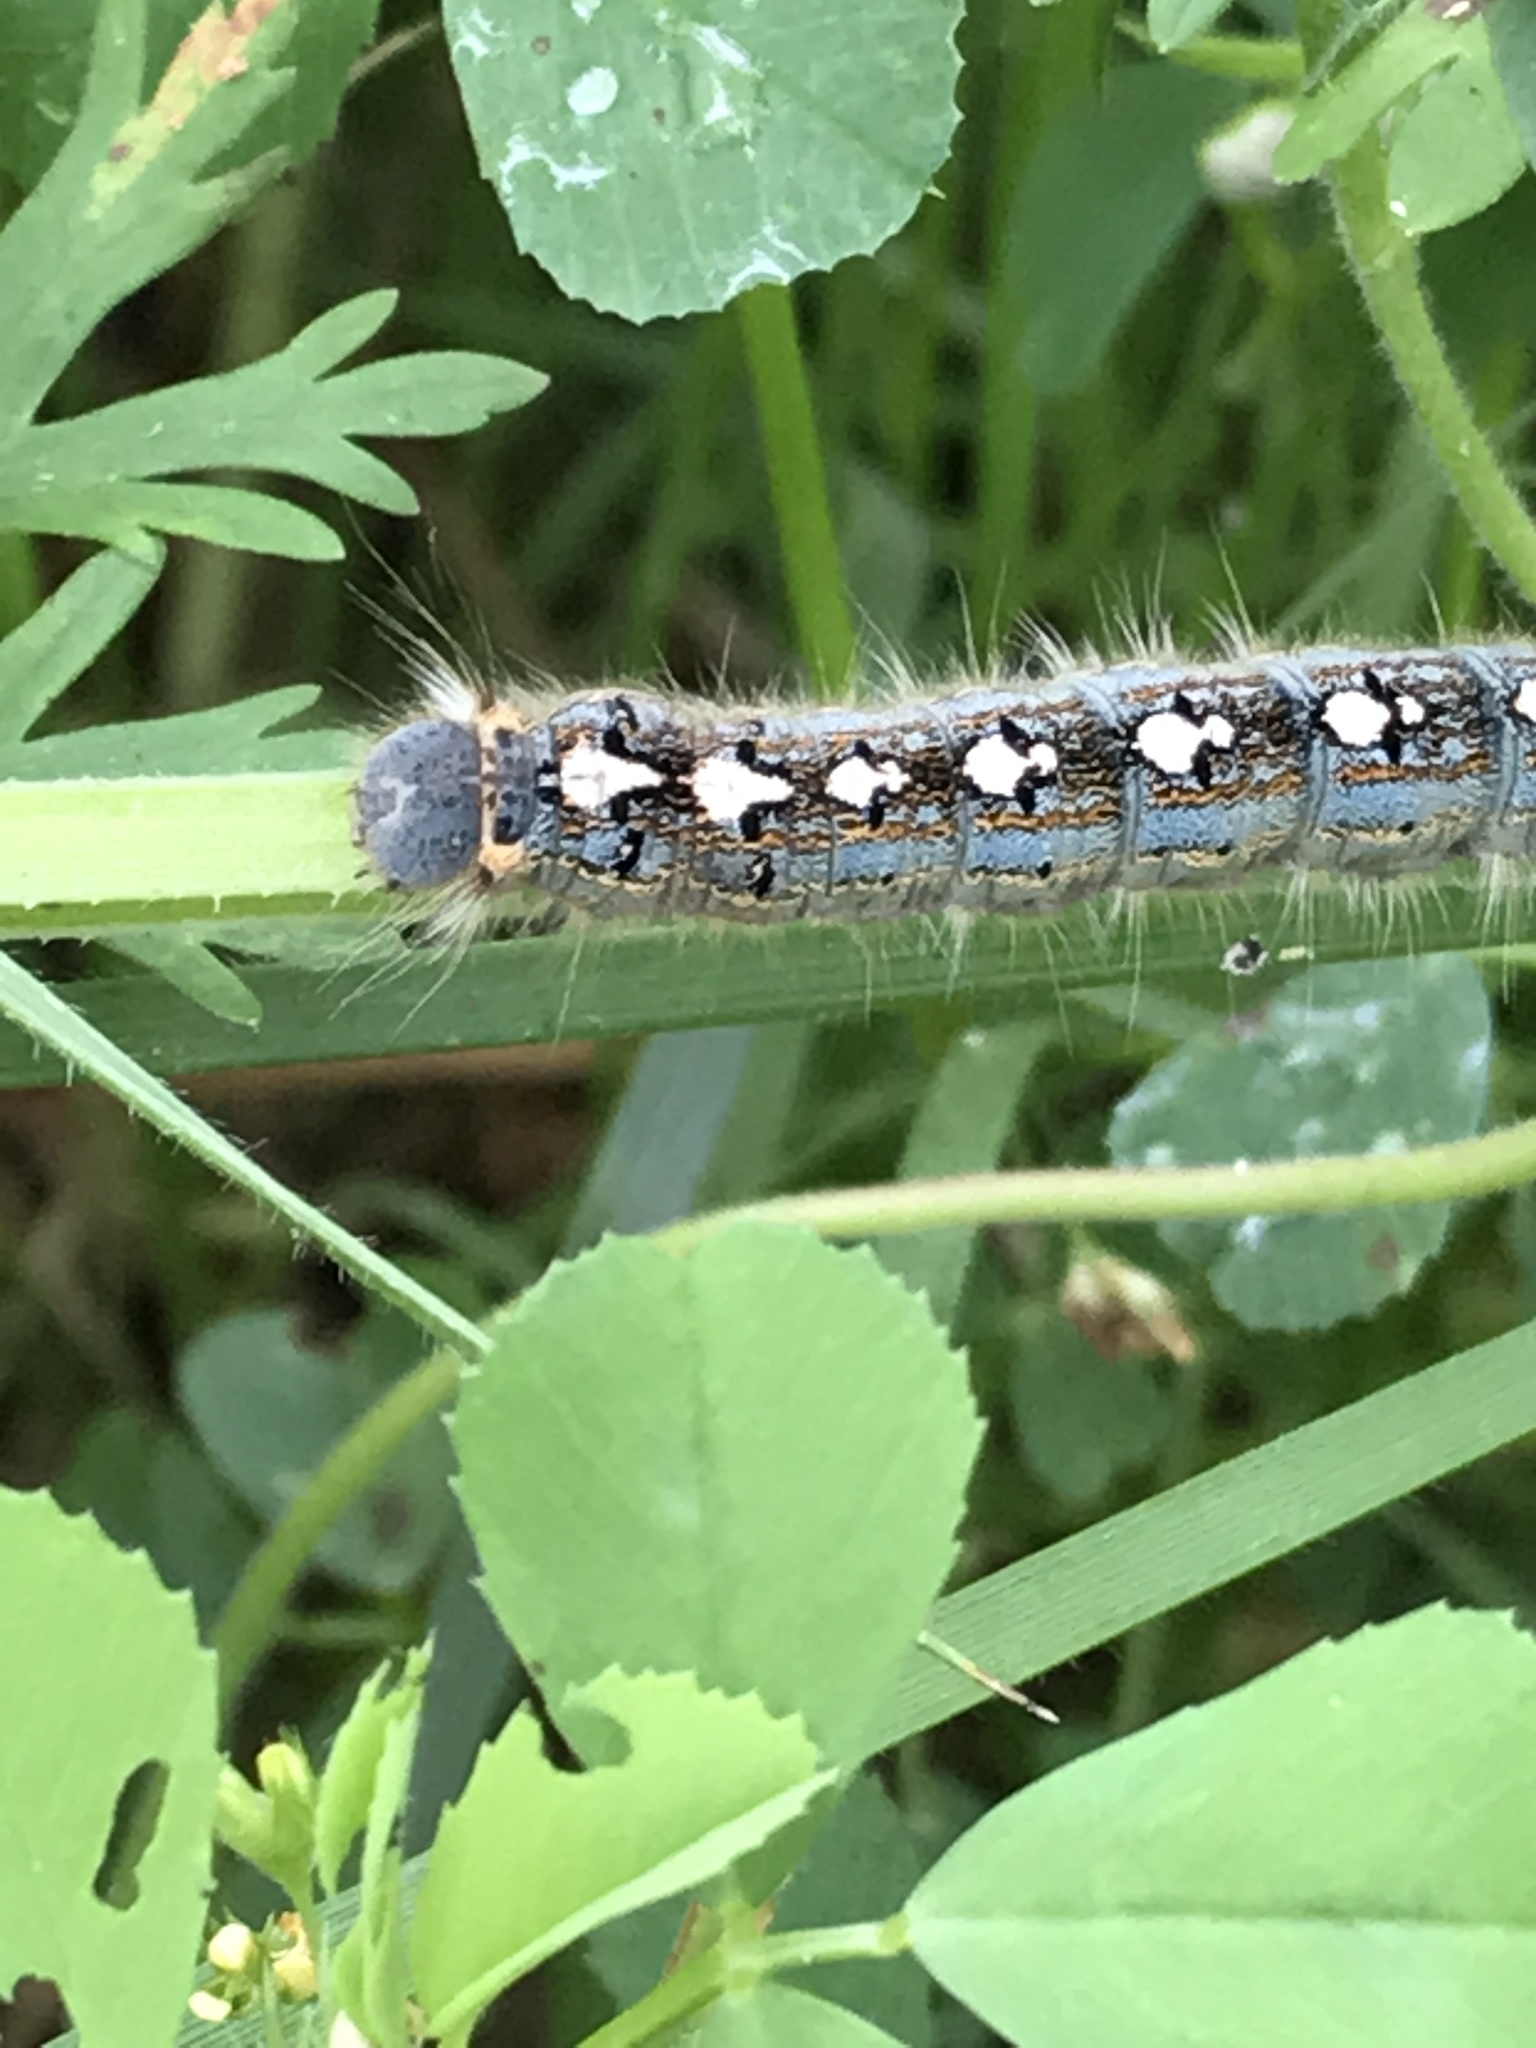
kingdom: Animalia
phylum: Arthropoda
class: Insecta
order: Lepidoptera
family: Lasiocampidae
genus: Malacosoma
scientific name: Malacosoma disstria
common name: Forest tent caterpillar
